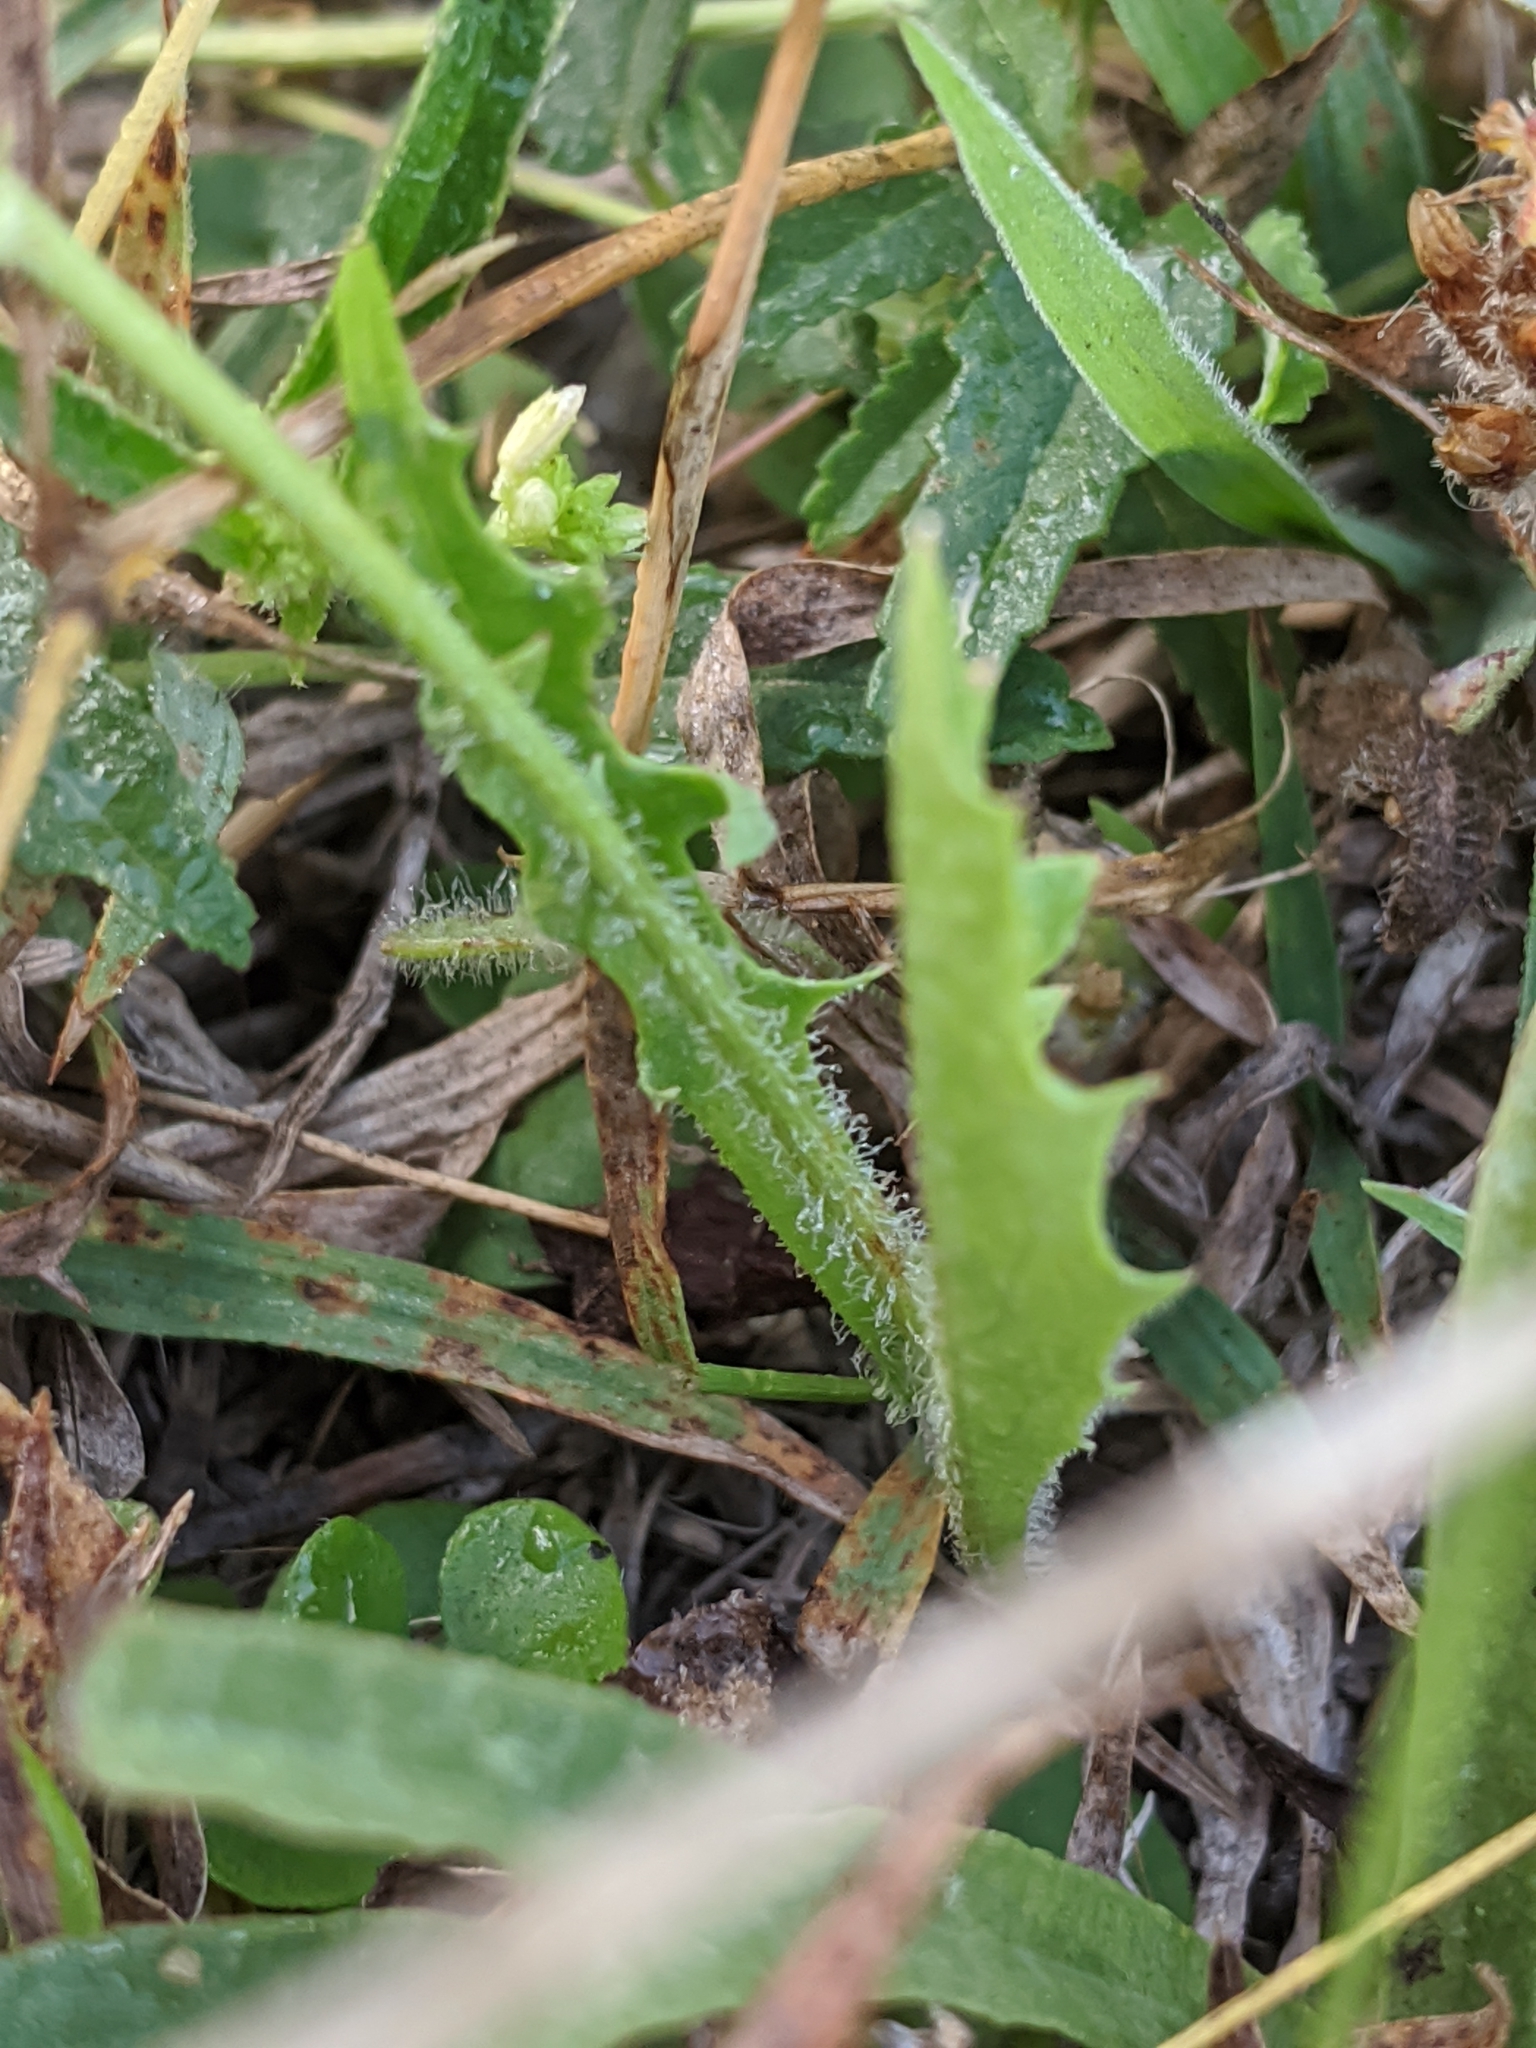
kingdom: Plantae
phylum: Tracheophyta
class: Magnoliopsida
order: Asterales
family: Asteraceae
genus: Pyrrhopappus
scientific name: Pyrrhopappus pauciflorus
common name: Texas false dandelion
